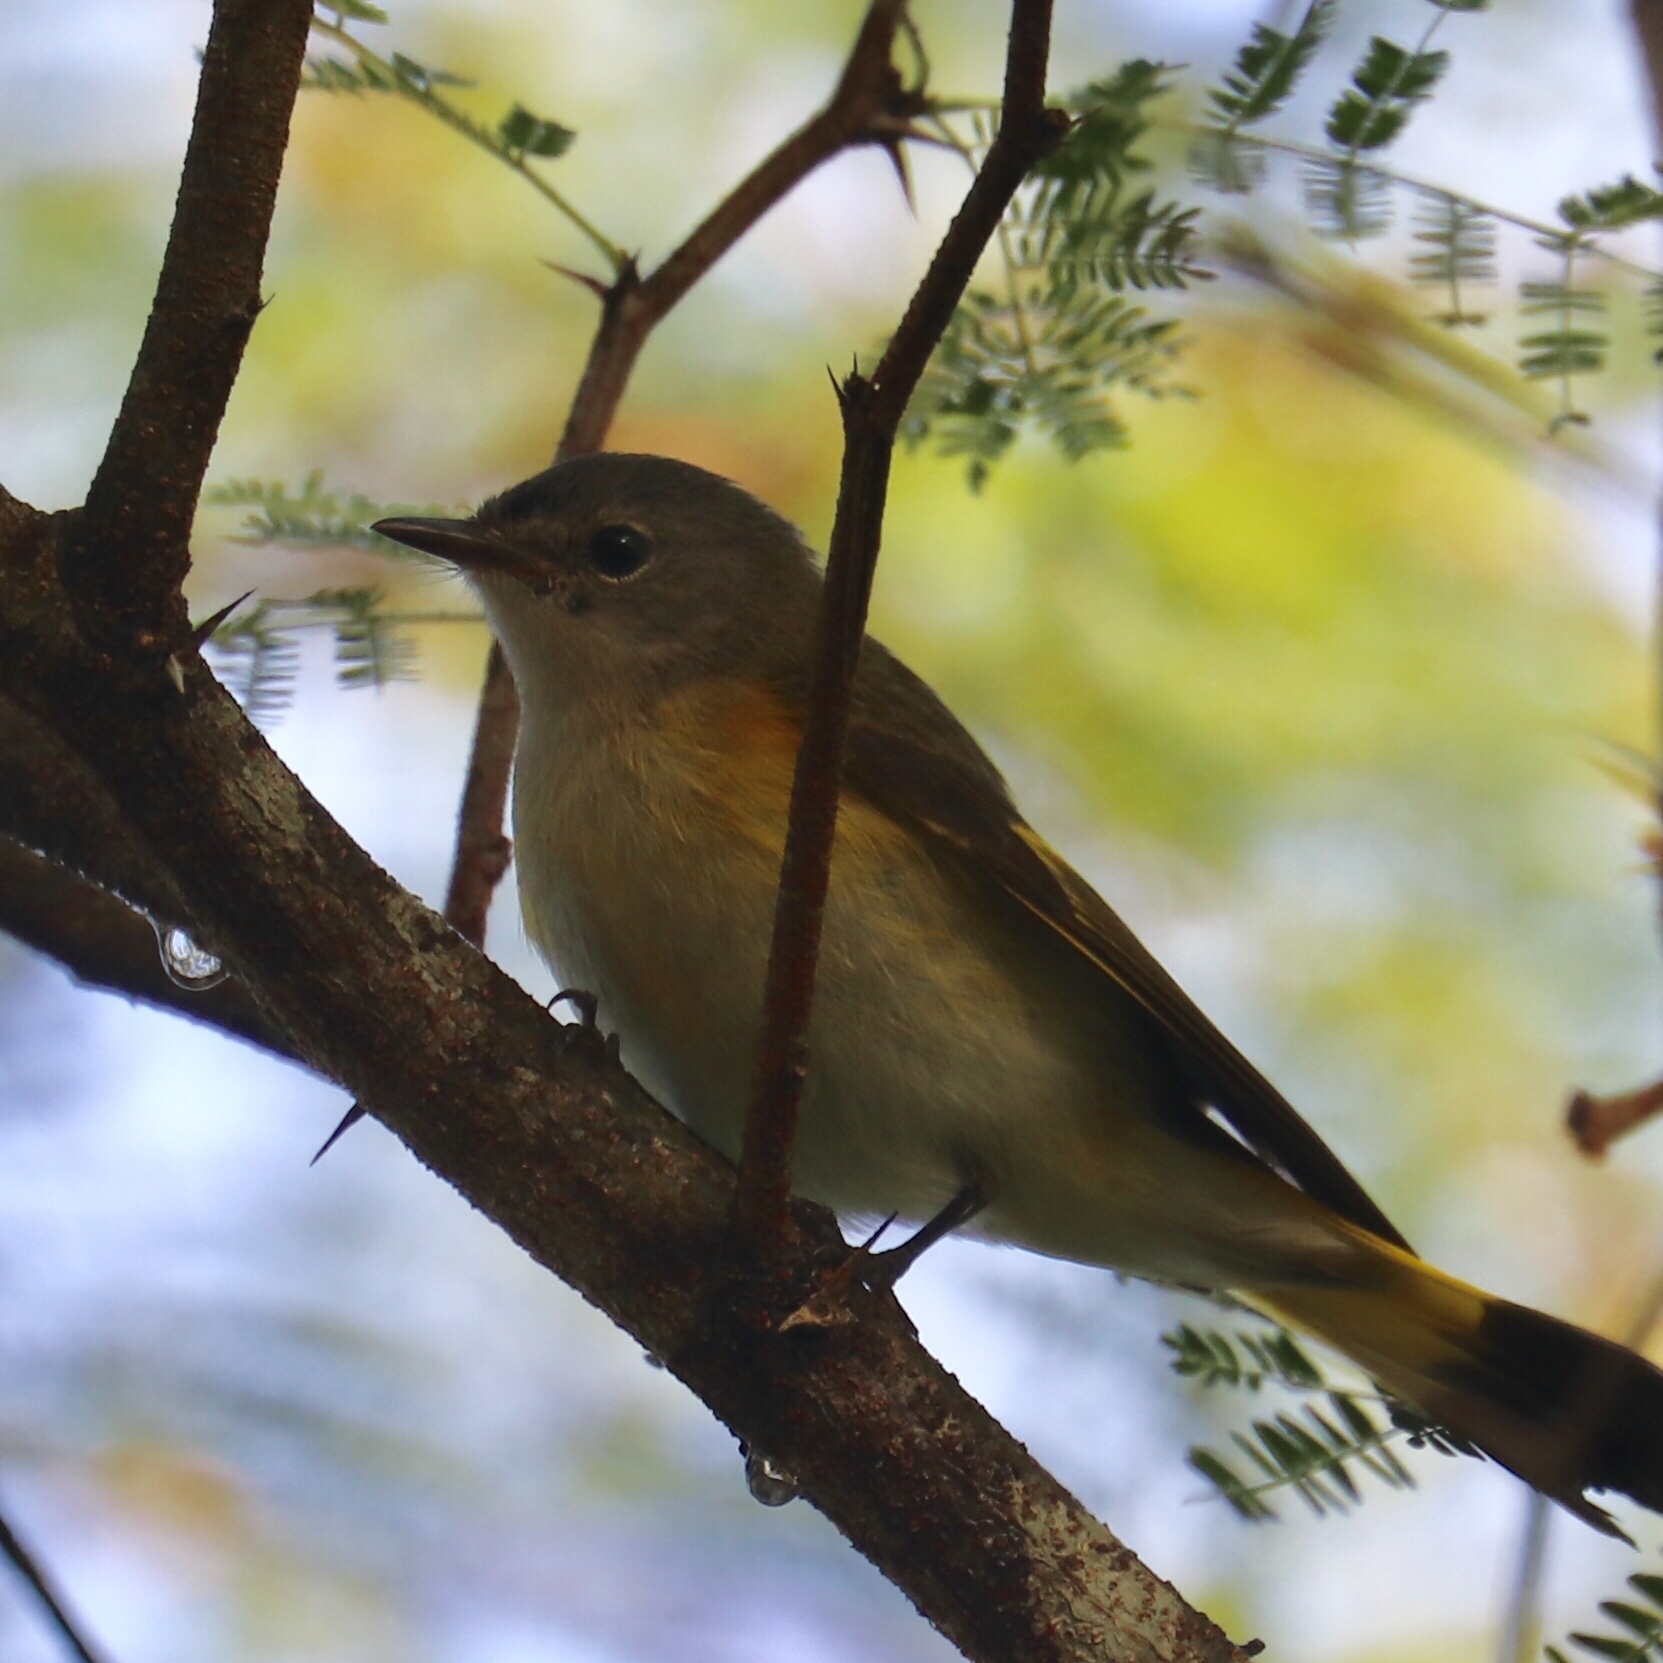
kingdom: Animalia
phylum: Chordata
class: Aves
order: Passeriformes
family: Parulidae
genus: Setophaga
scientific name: Setophaga ruticilla
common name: American redstart
